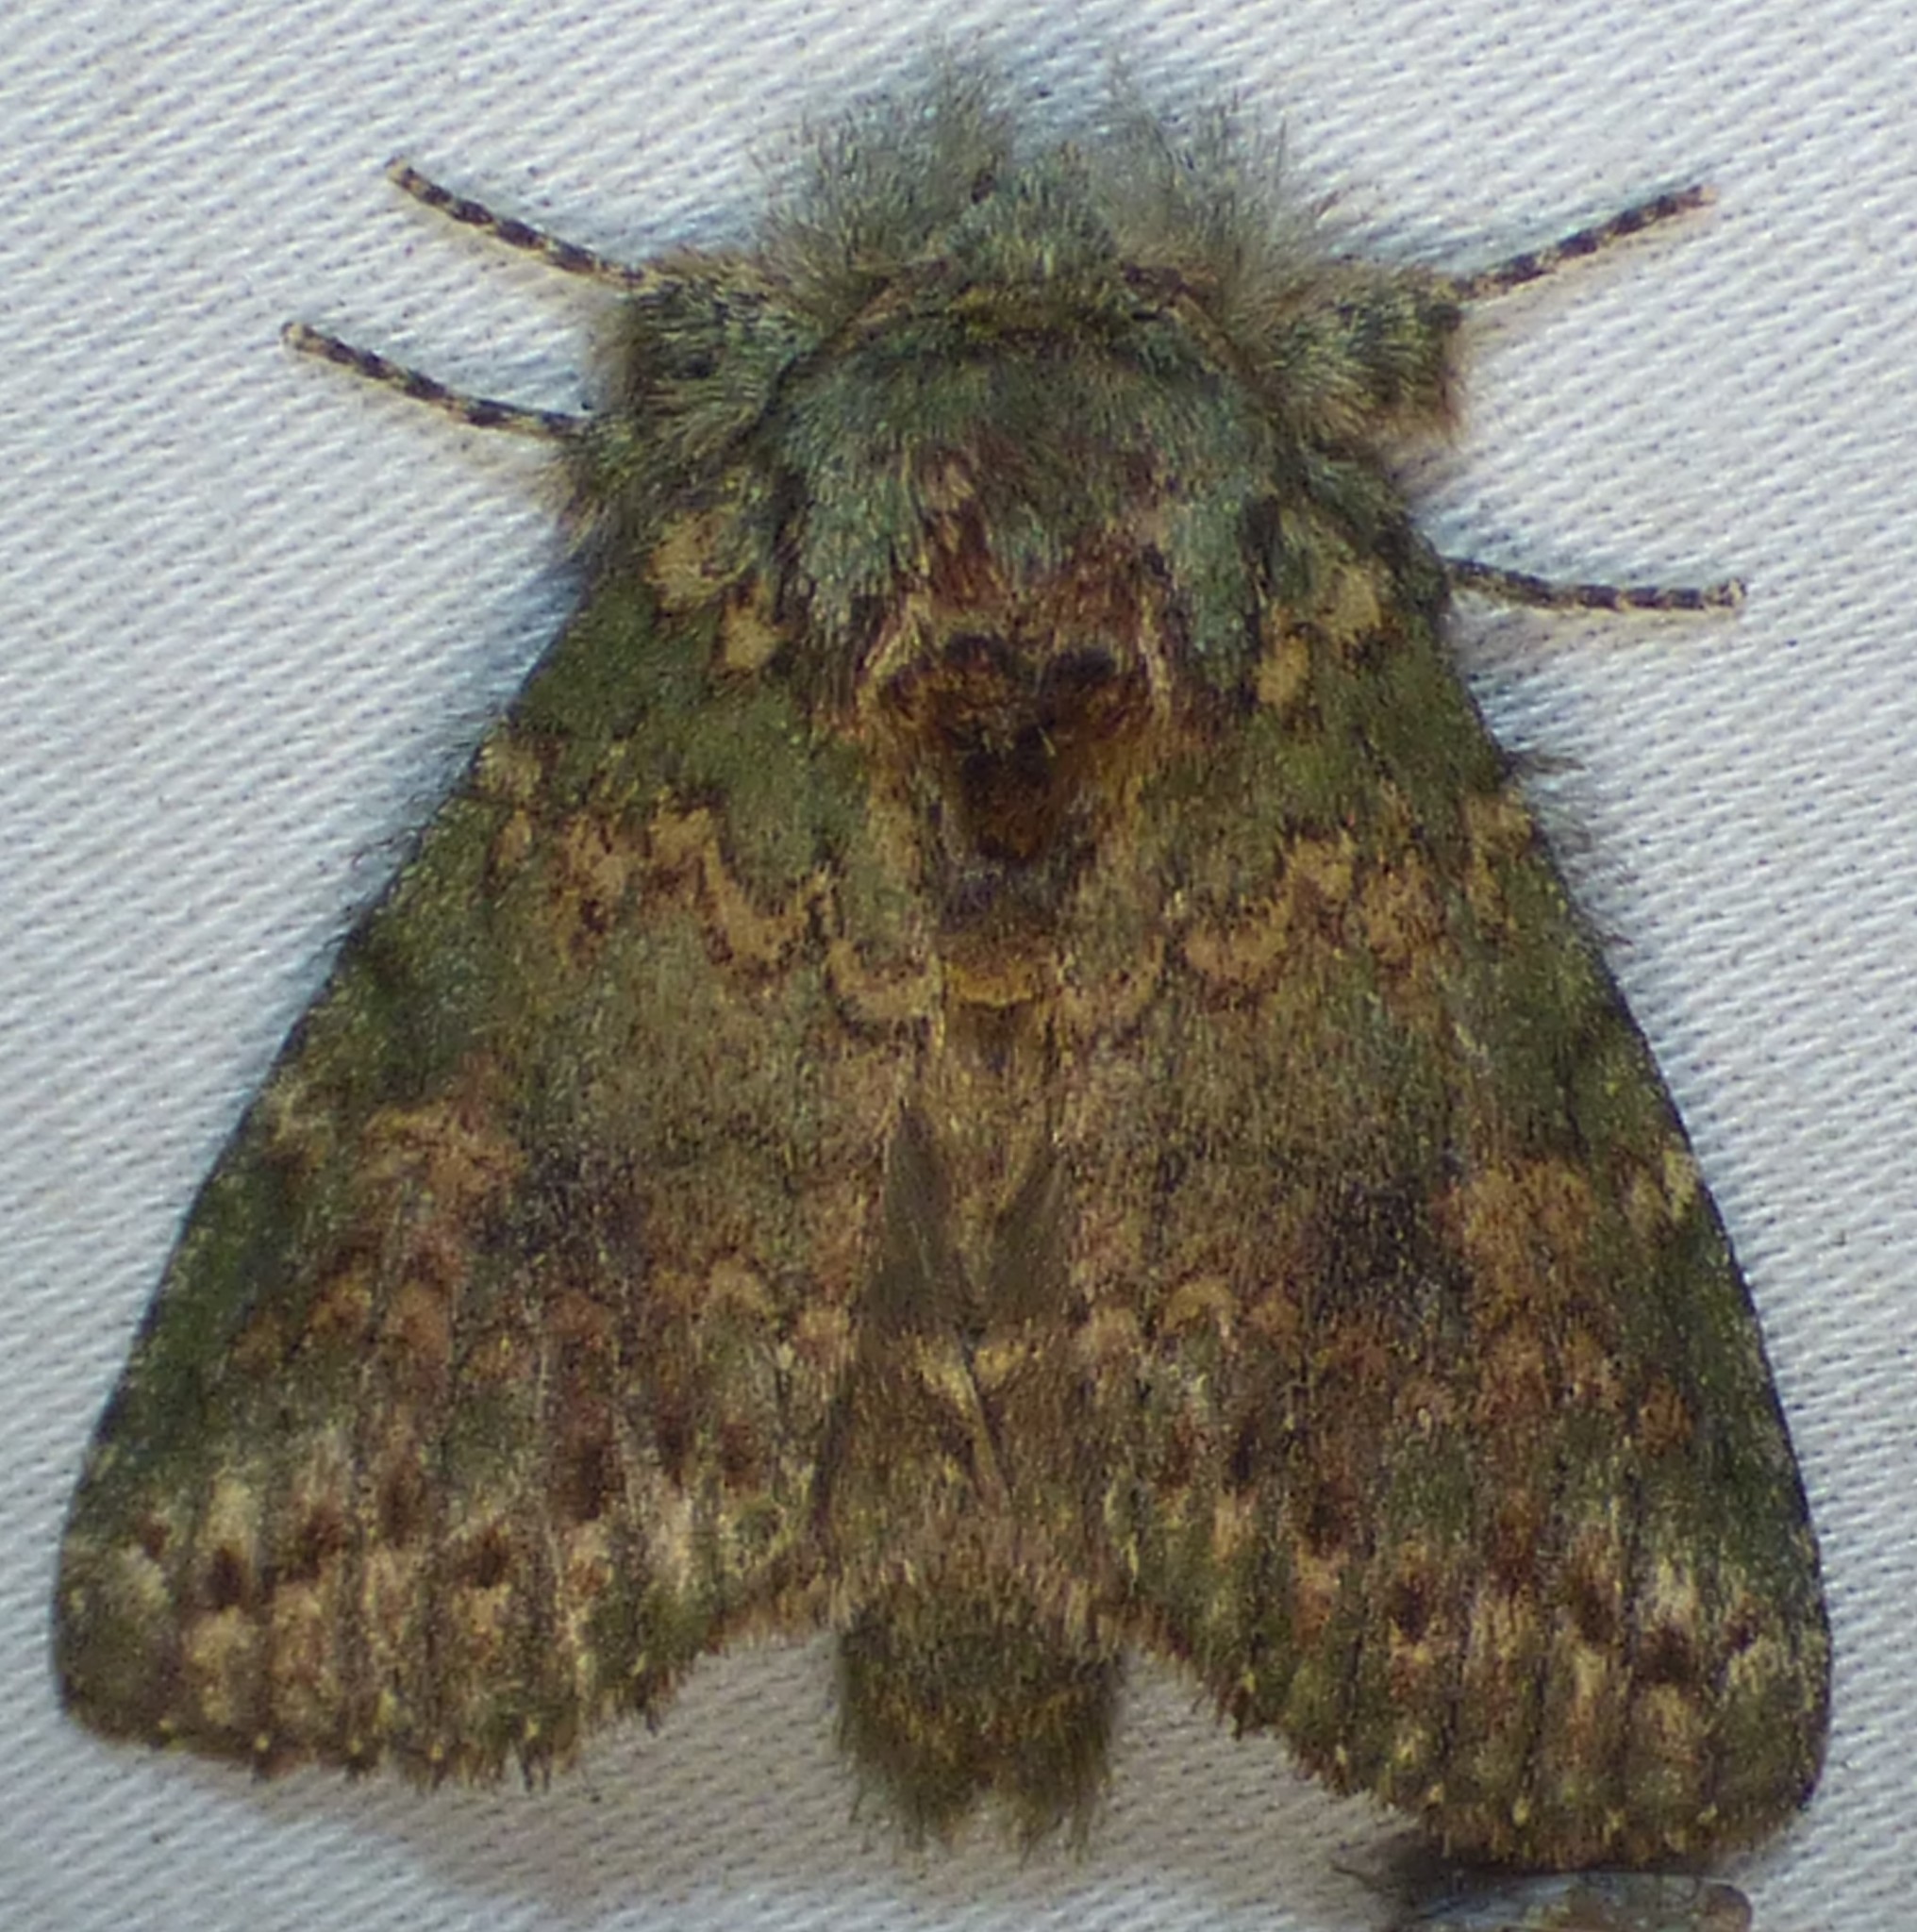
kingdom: Animalia
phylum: Arthropoda
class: Insecta
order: Lepidoptera
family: Notodontidae
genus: Disphragis
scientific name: Disphragis Cecrita biundata
